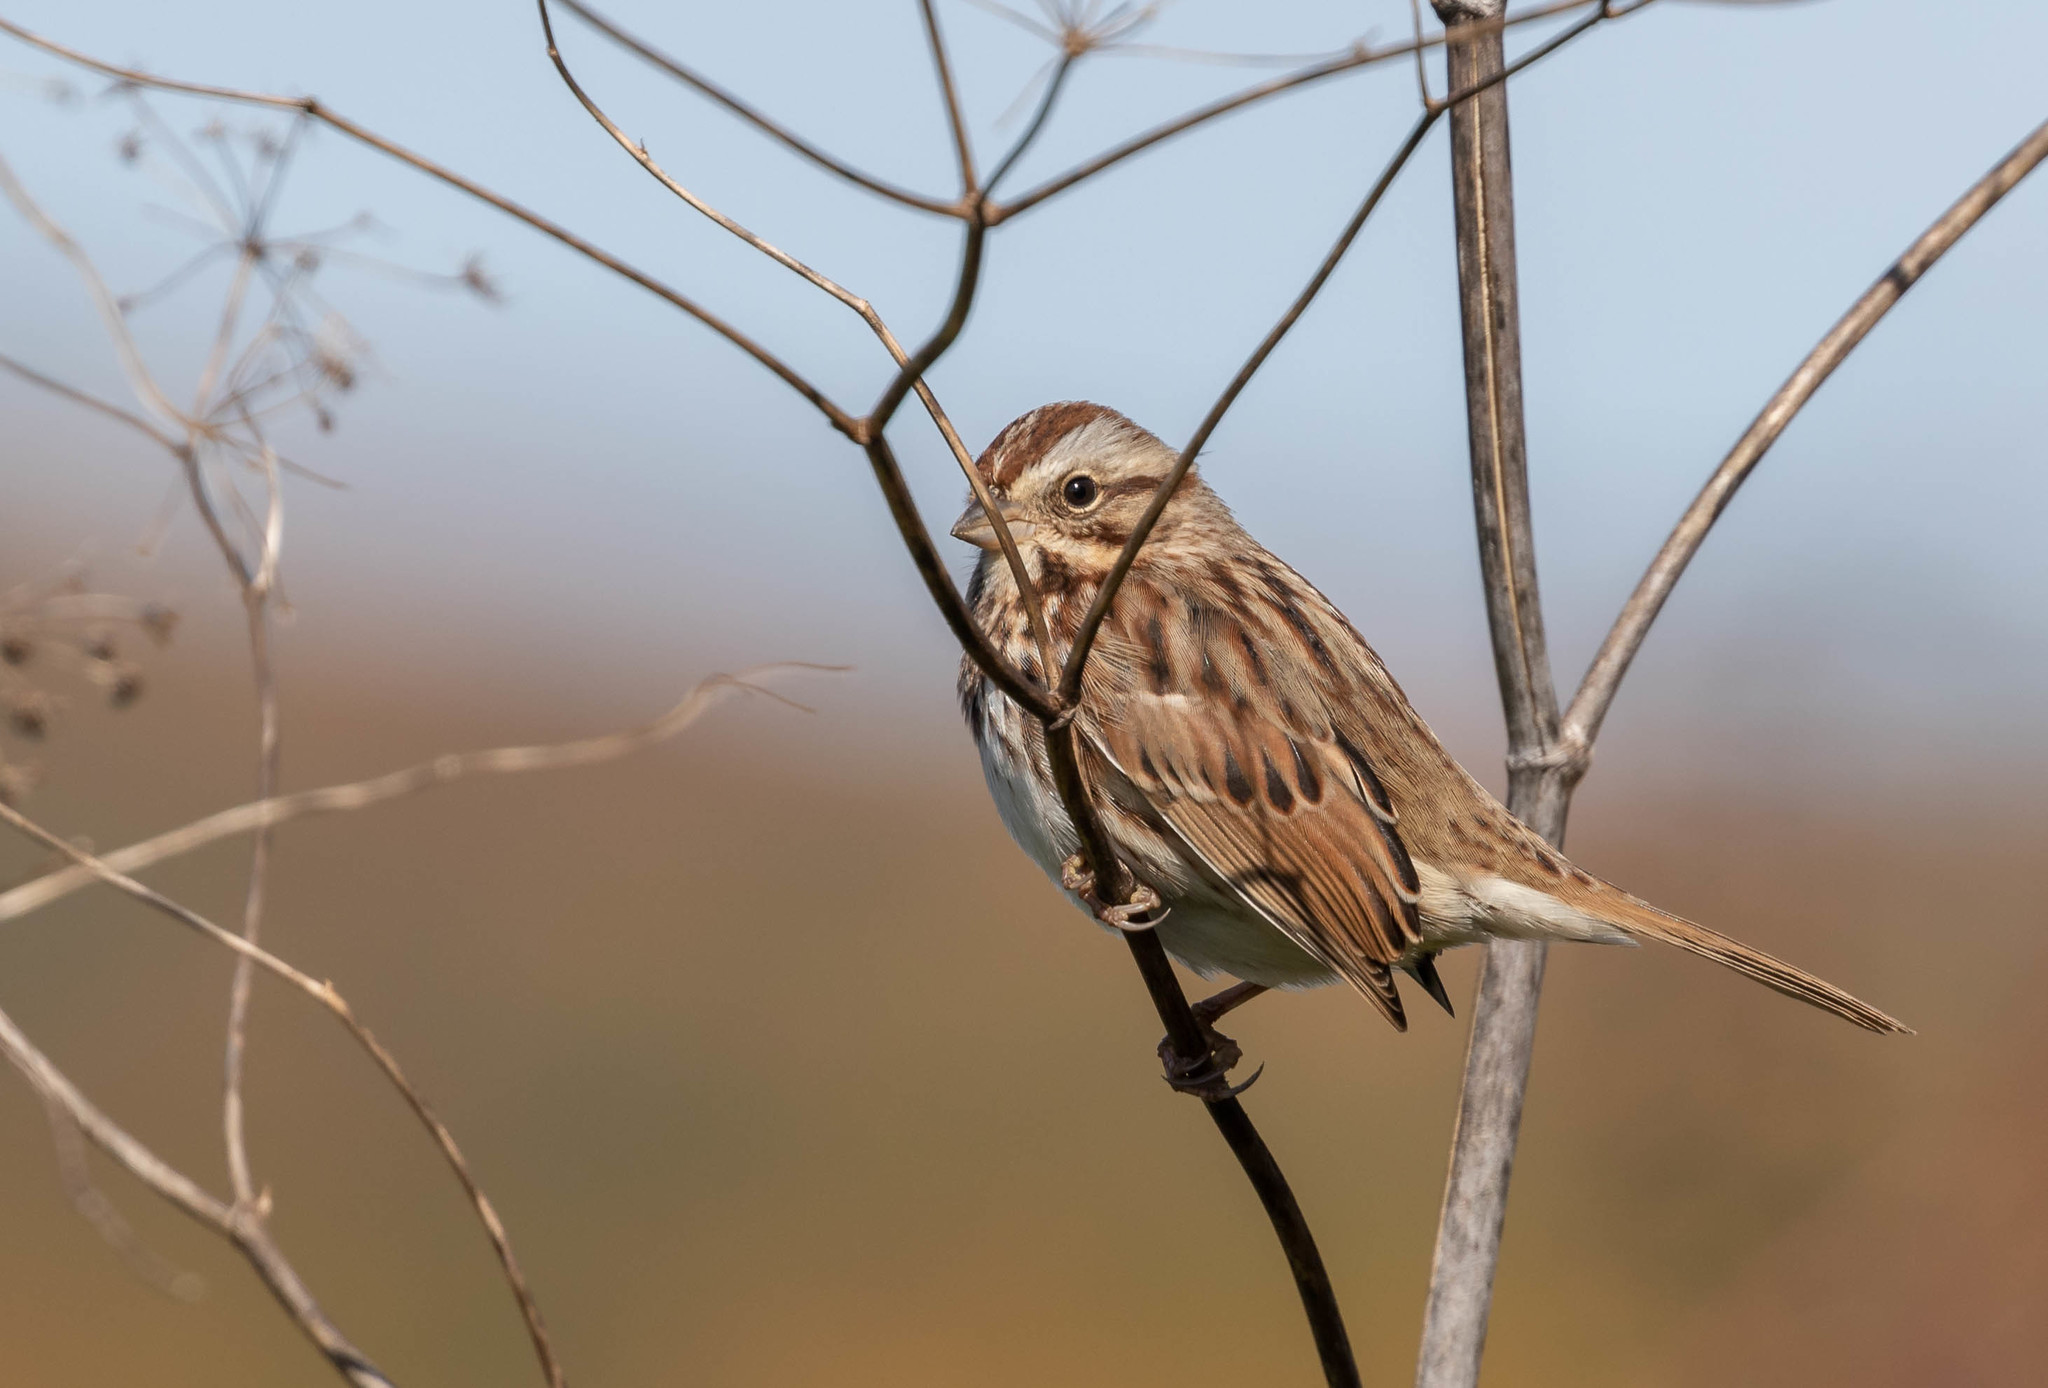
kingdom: Animalia
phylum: Chordata
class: Aves
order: Passeriformes
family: Passerellidae
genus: Melospiza
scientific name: Melospiza melodia
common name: Song sparrow
